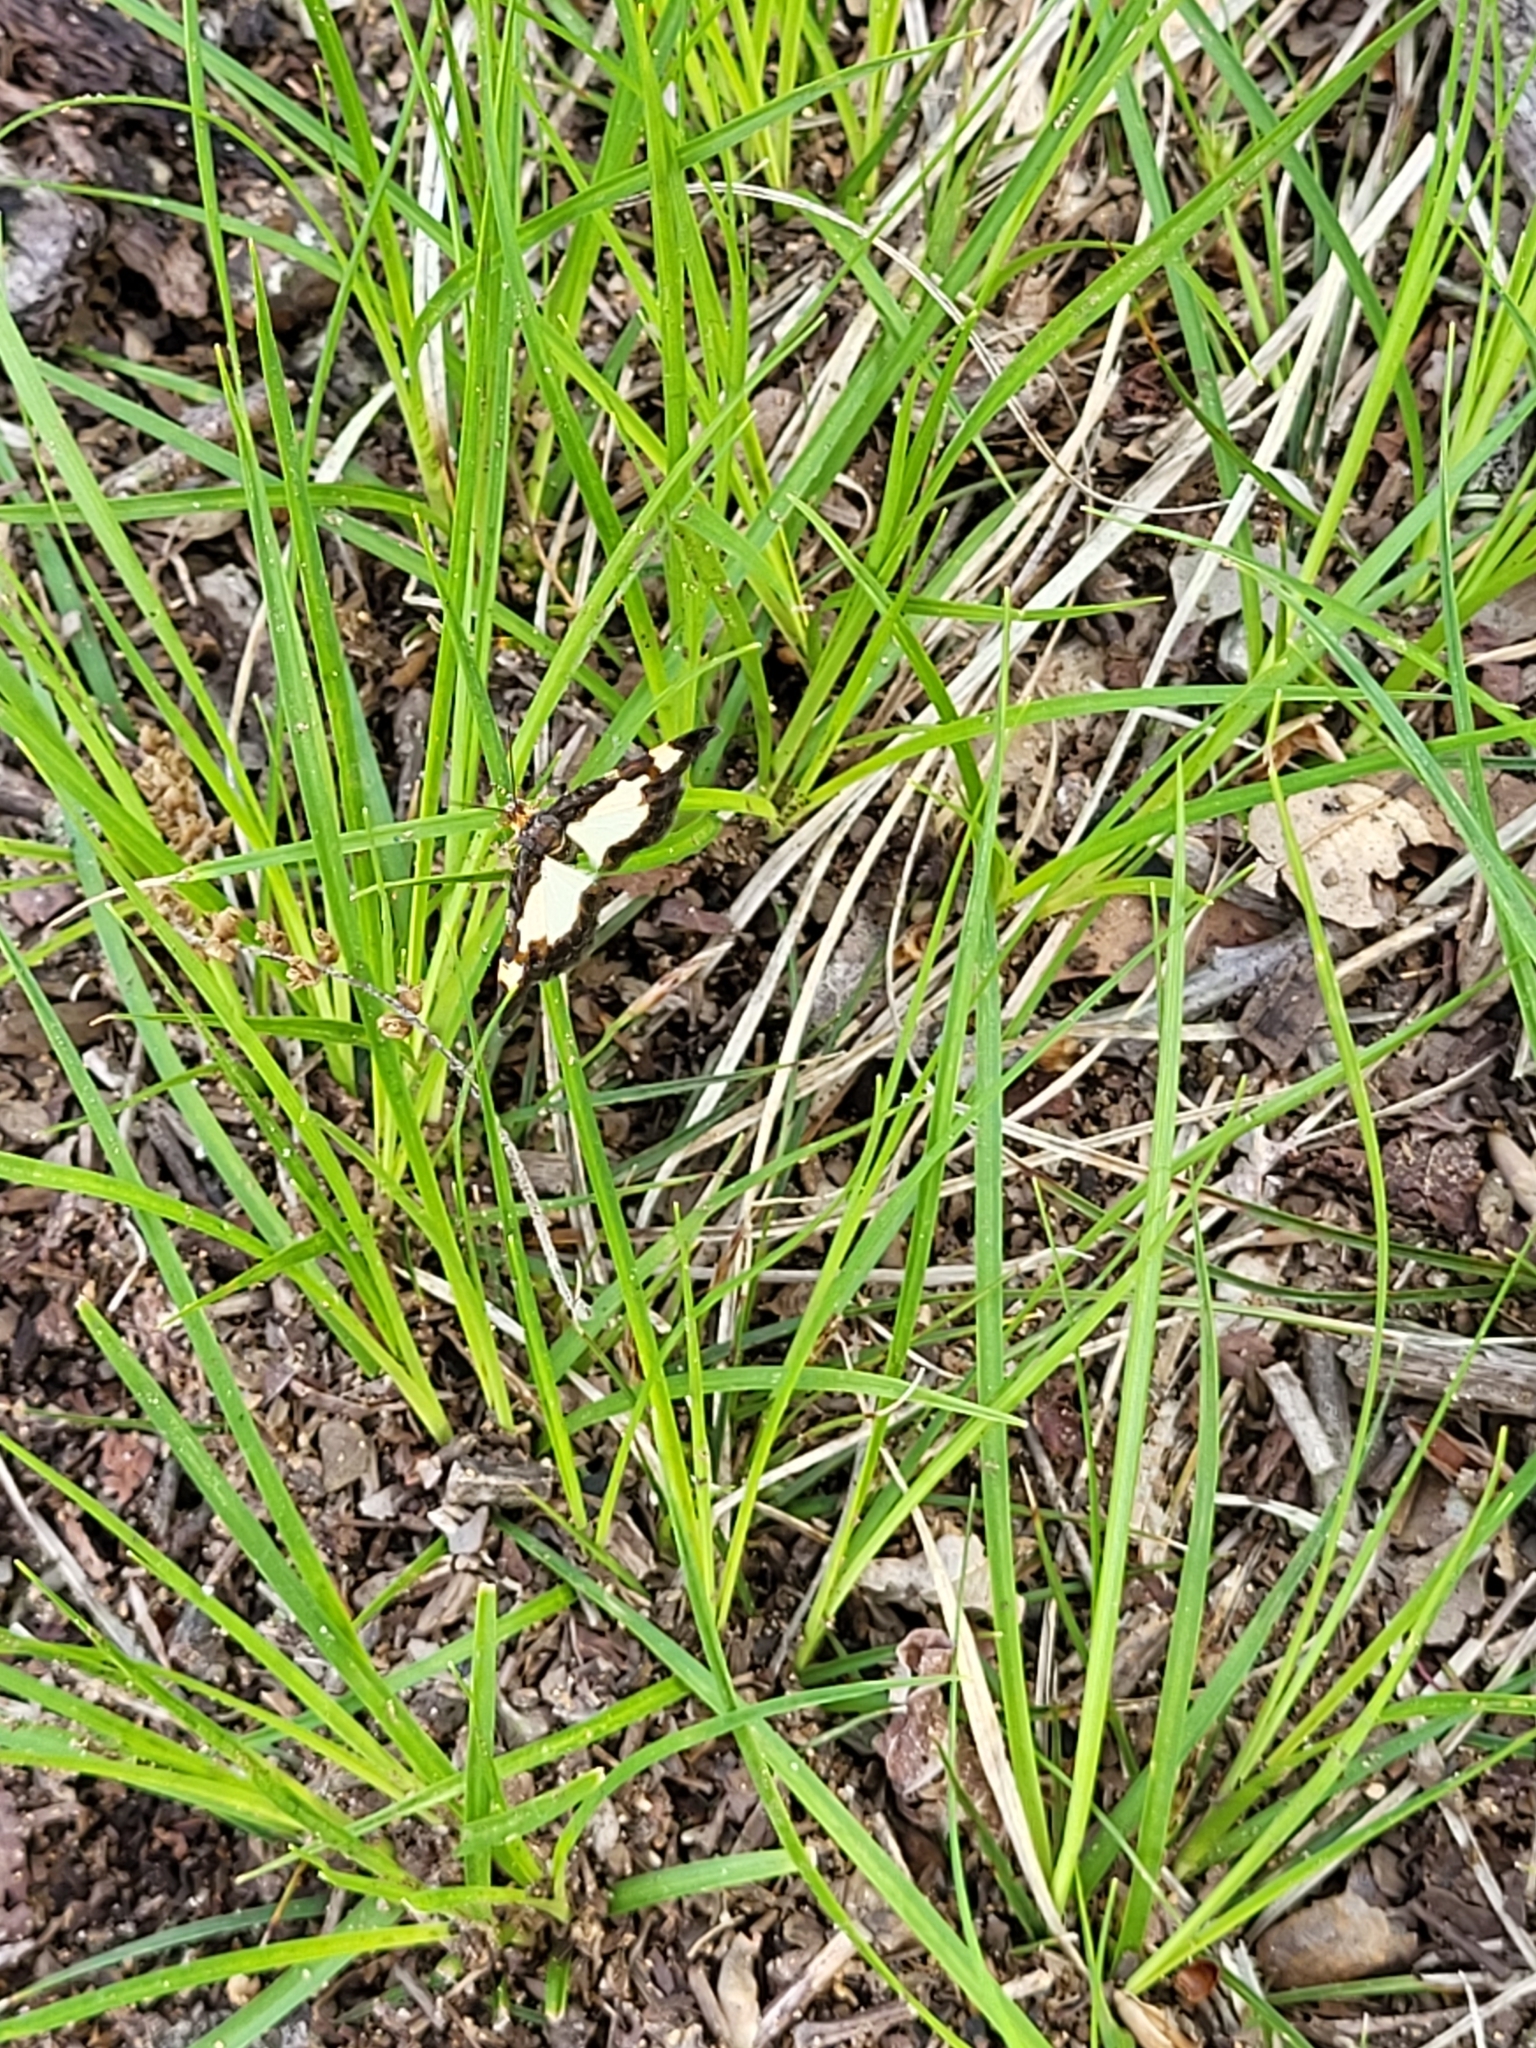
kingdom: Animalia
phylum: Arthropoda
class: Insecta
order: Lepidoptera
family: Geometridae
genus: Heliomata
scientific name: Heliomata cycladata
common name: Common spring moth
